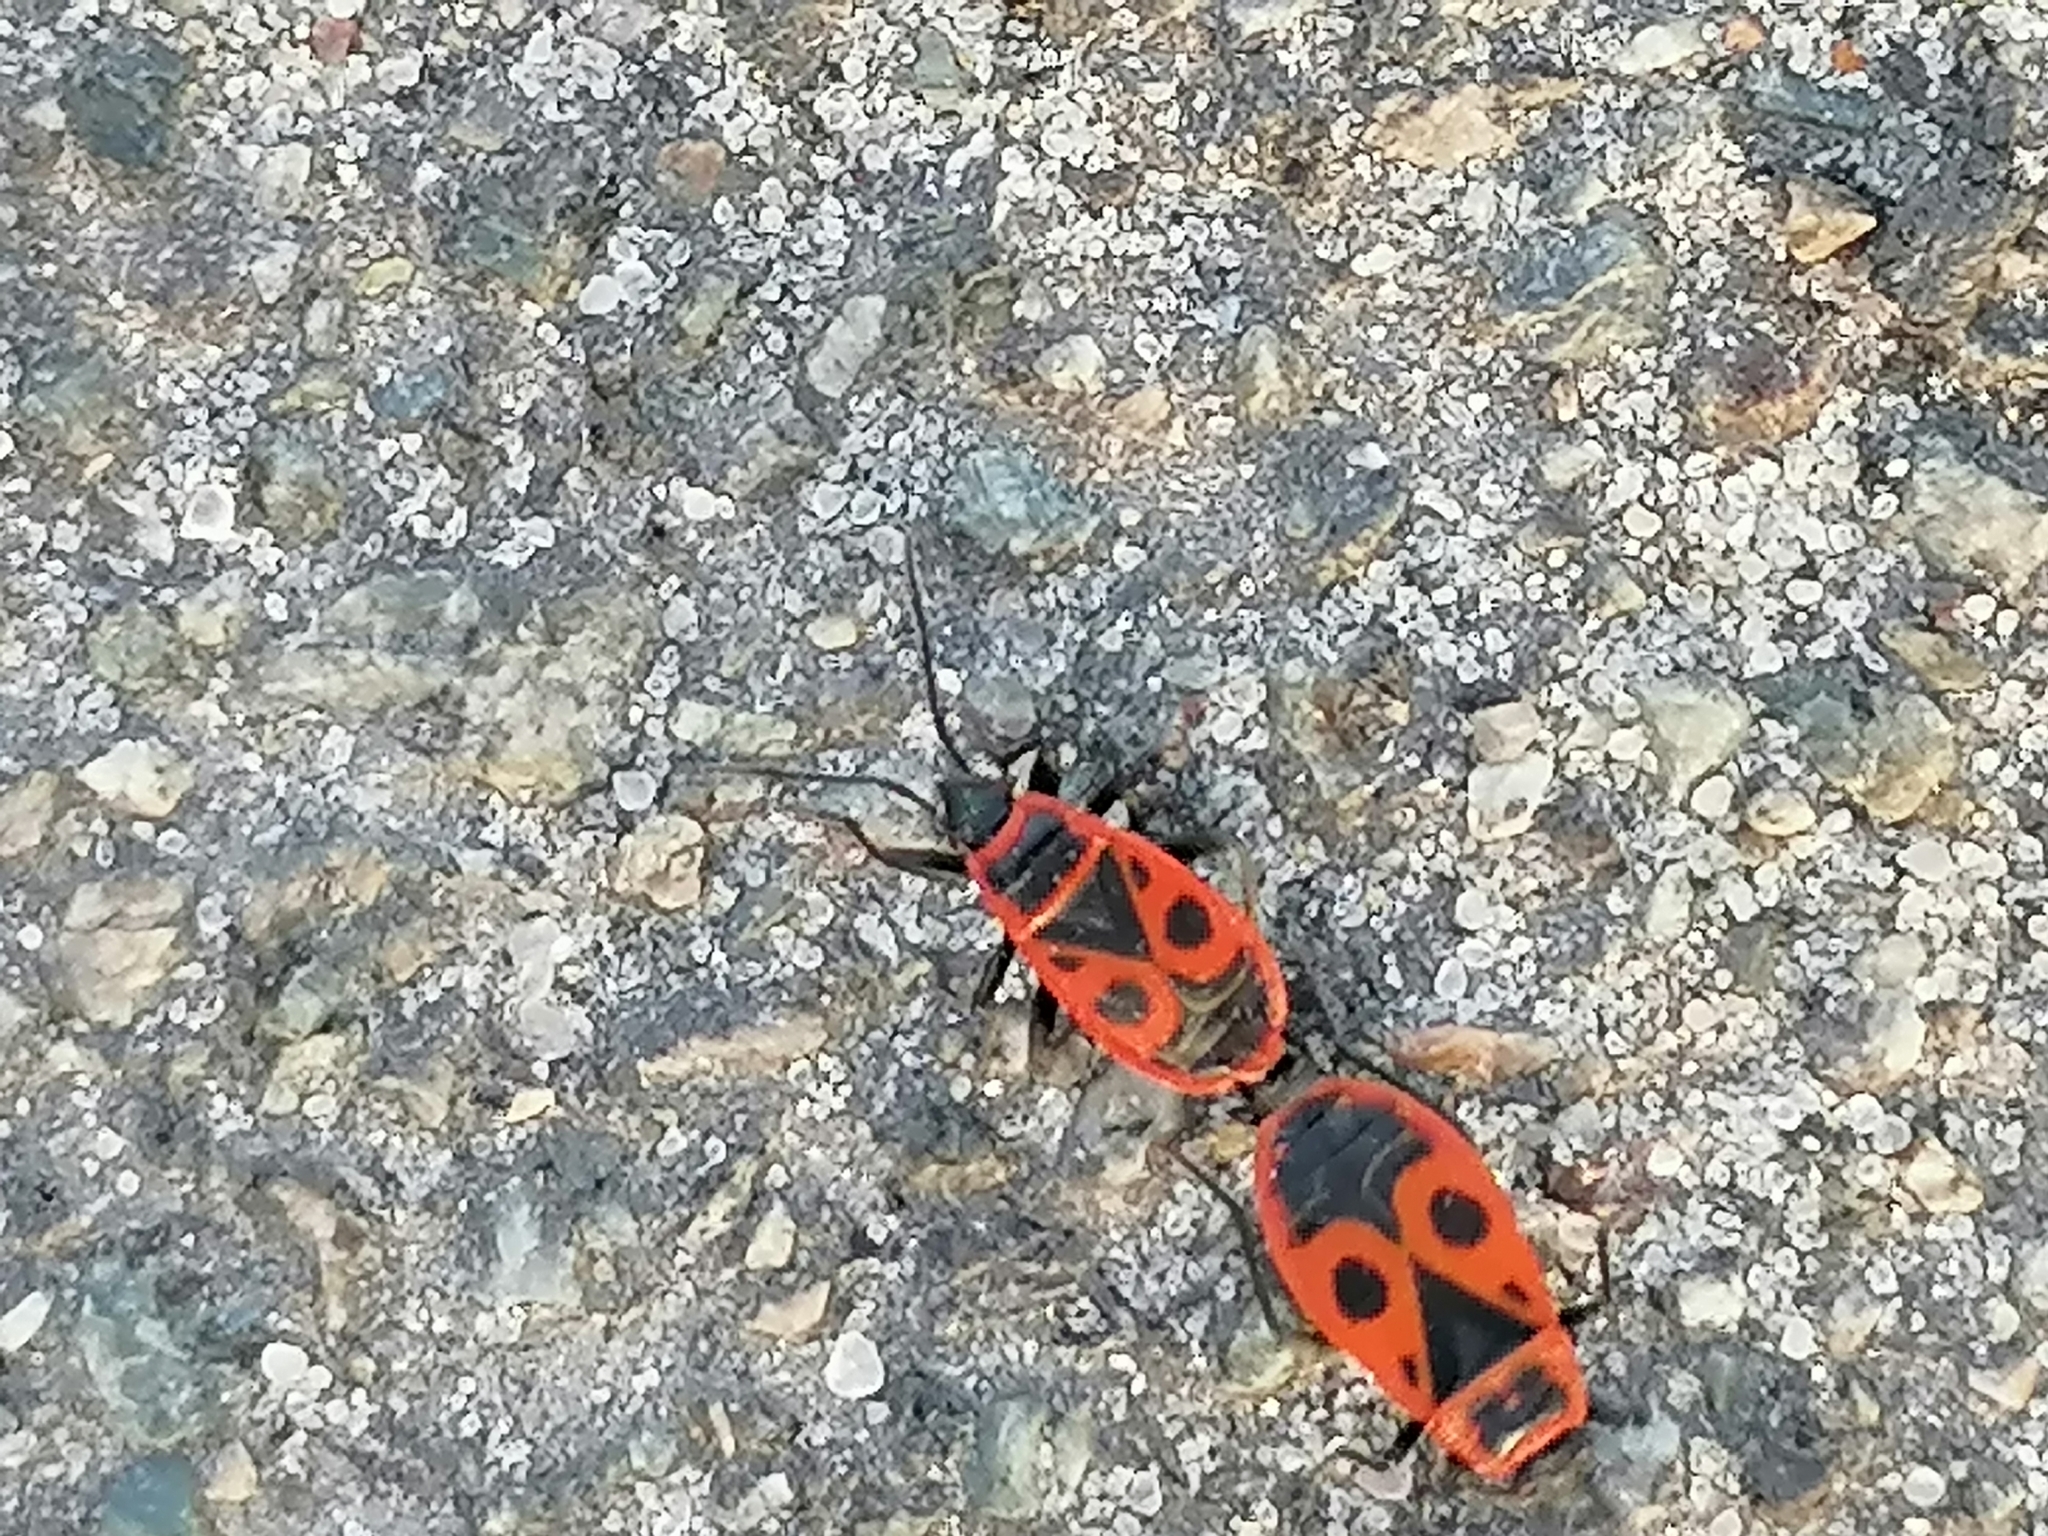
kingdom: Animalia
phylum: Arthropoda
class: Insecta
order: Hemiptera
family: Pyrrhocoridae
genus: Pyrrhocoris
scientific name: Pyrrhocoris apterus
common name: Firebug
